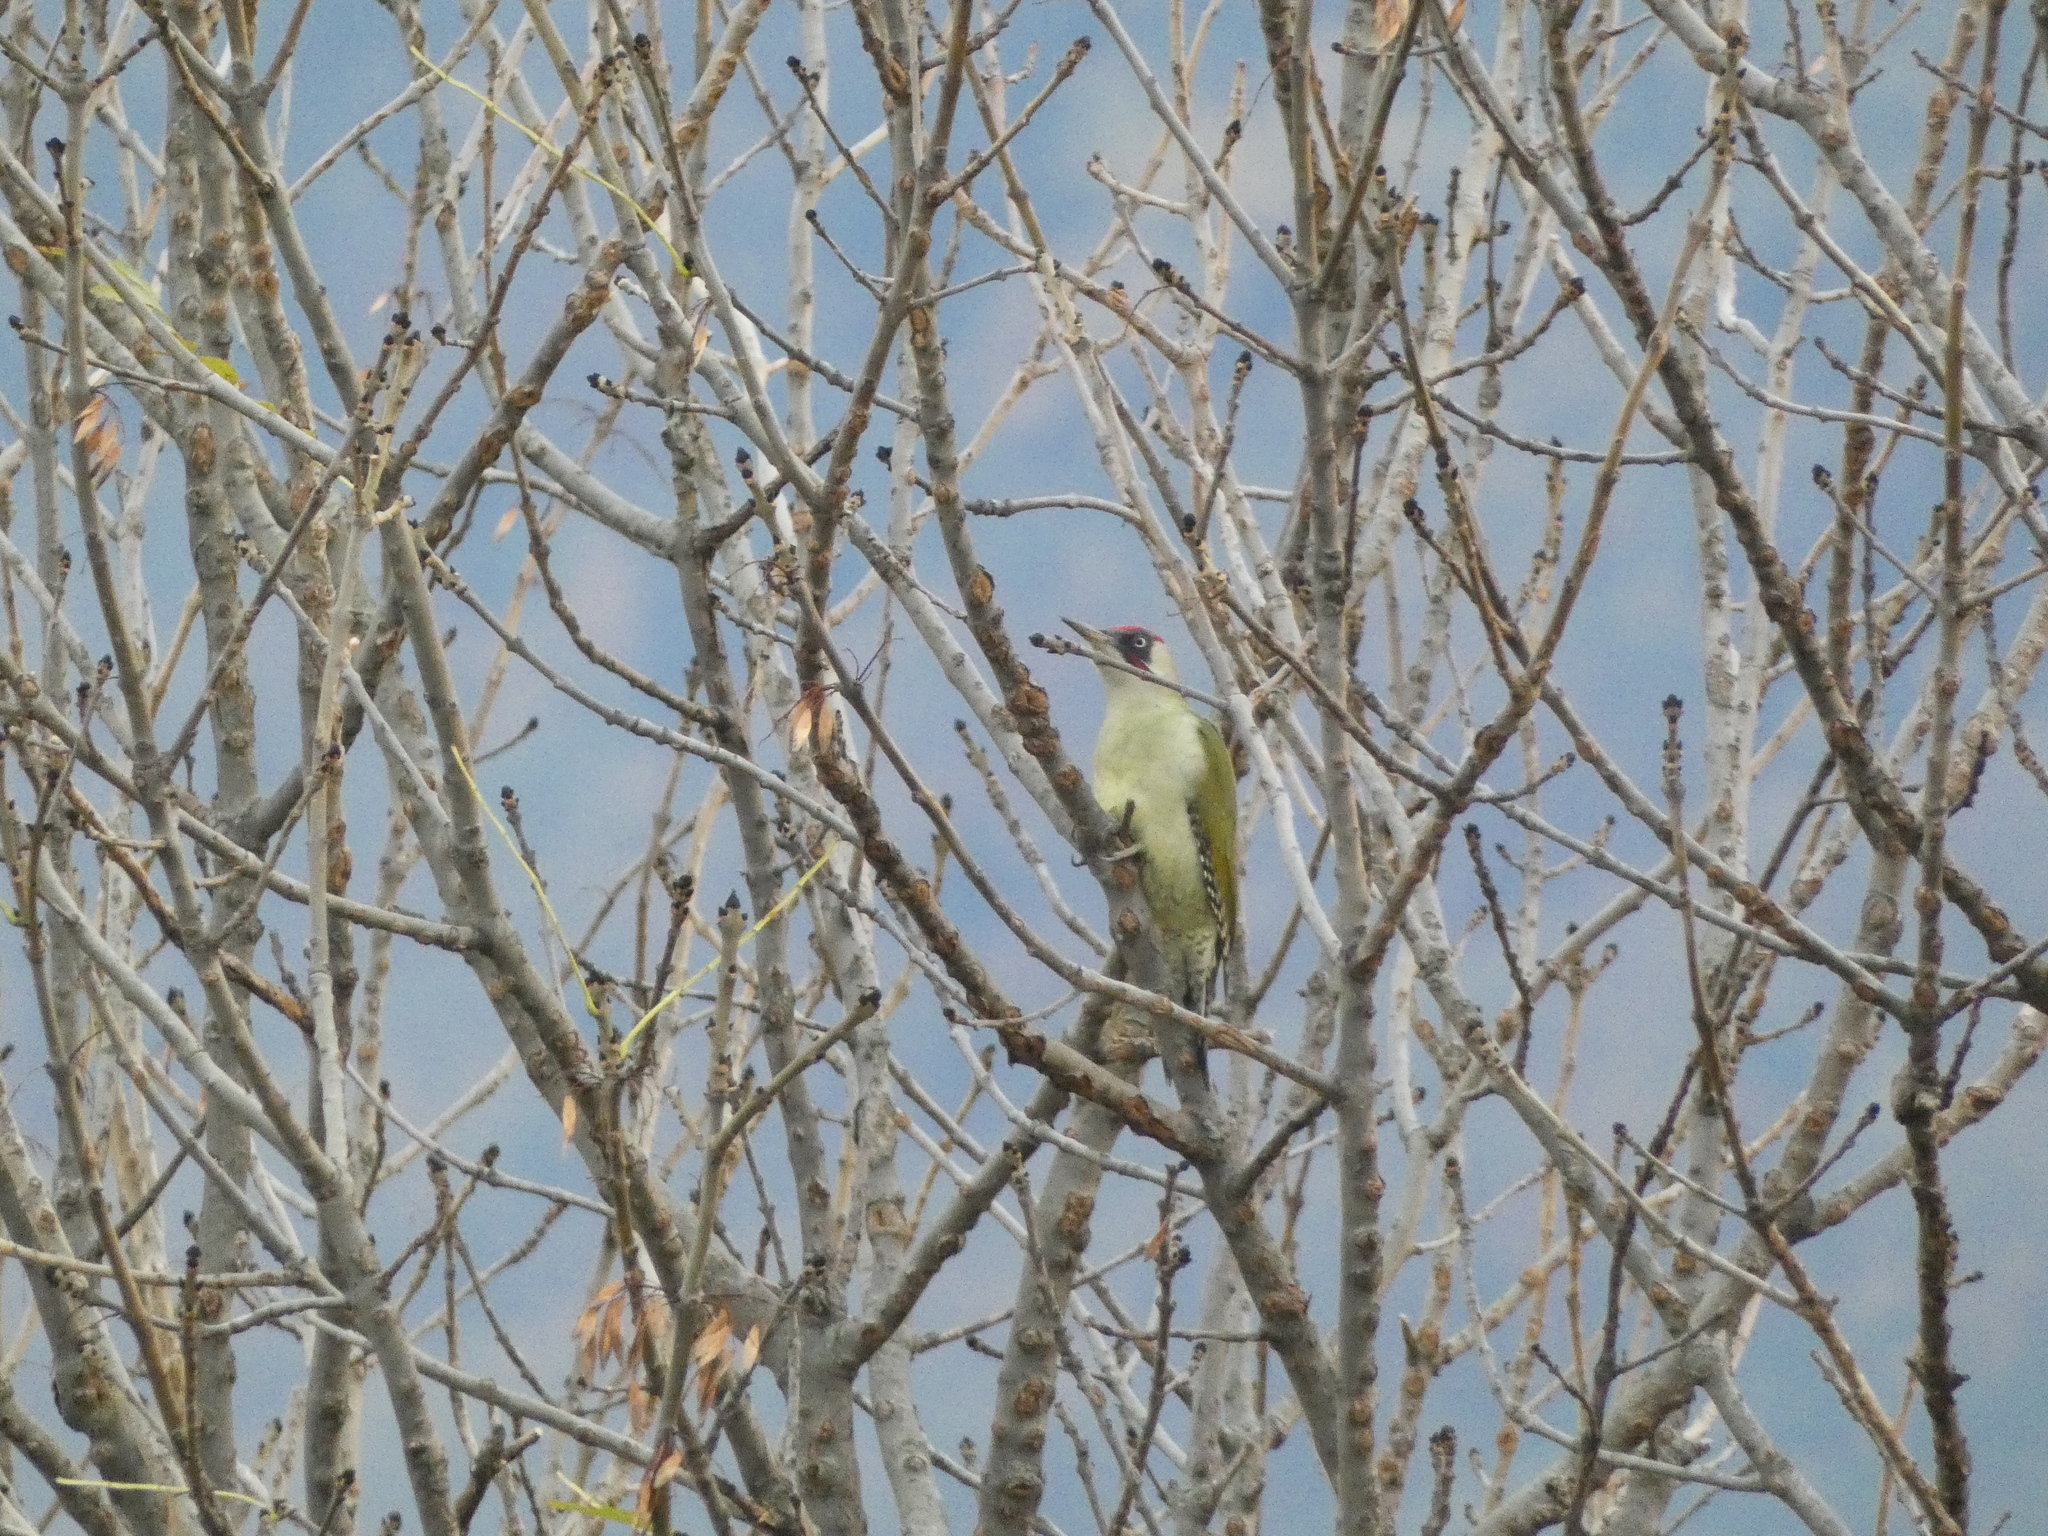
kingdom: Animalia
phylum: Chordata
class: Aves
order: Piciformes
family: Picidae
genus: Picus
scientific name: Picus viridis
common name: European green woodpecker
